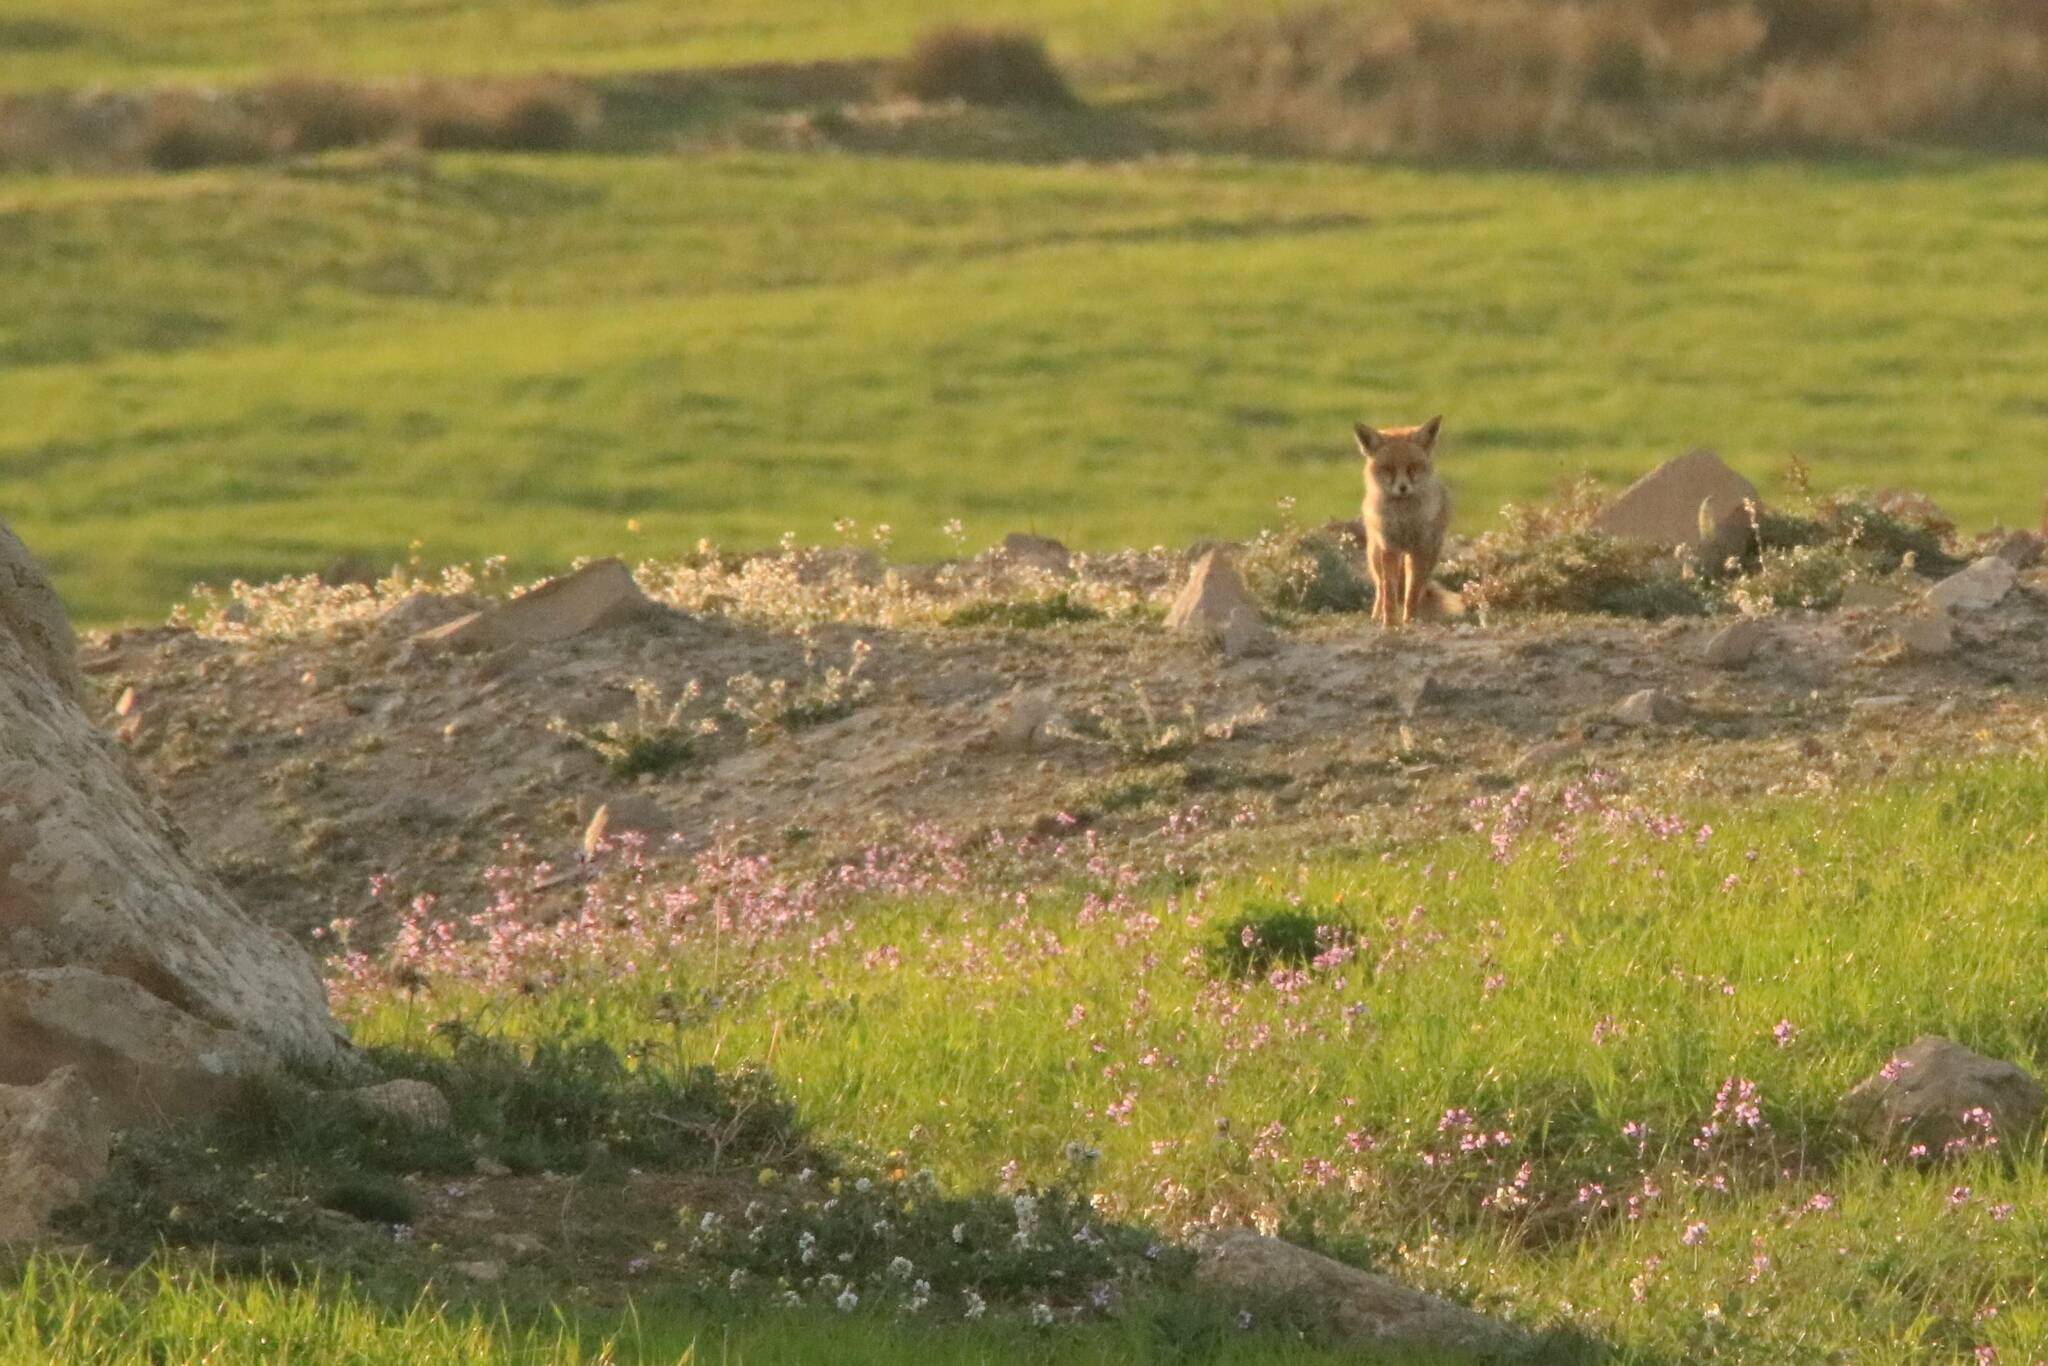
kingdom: Animalia
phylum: Chordata
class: Mammalia
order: Carnivora
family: Canidae
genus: Vulpes
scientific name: Vulpes vulpes
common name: Red fox
